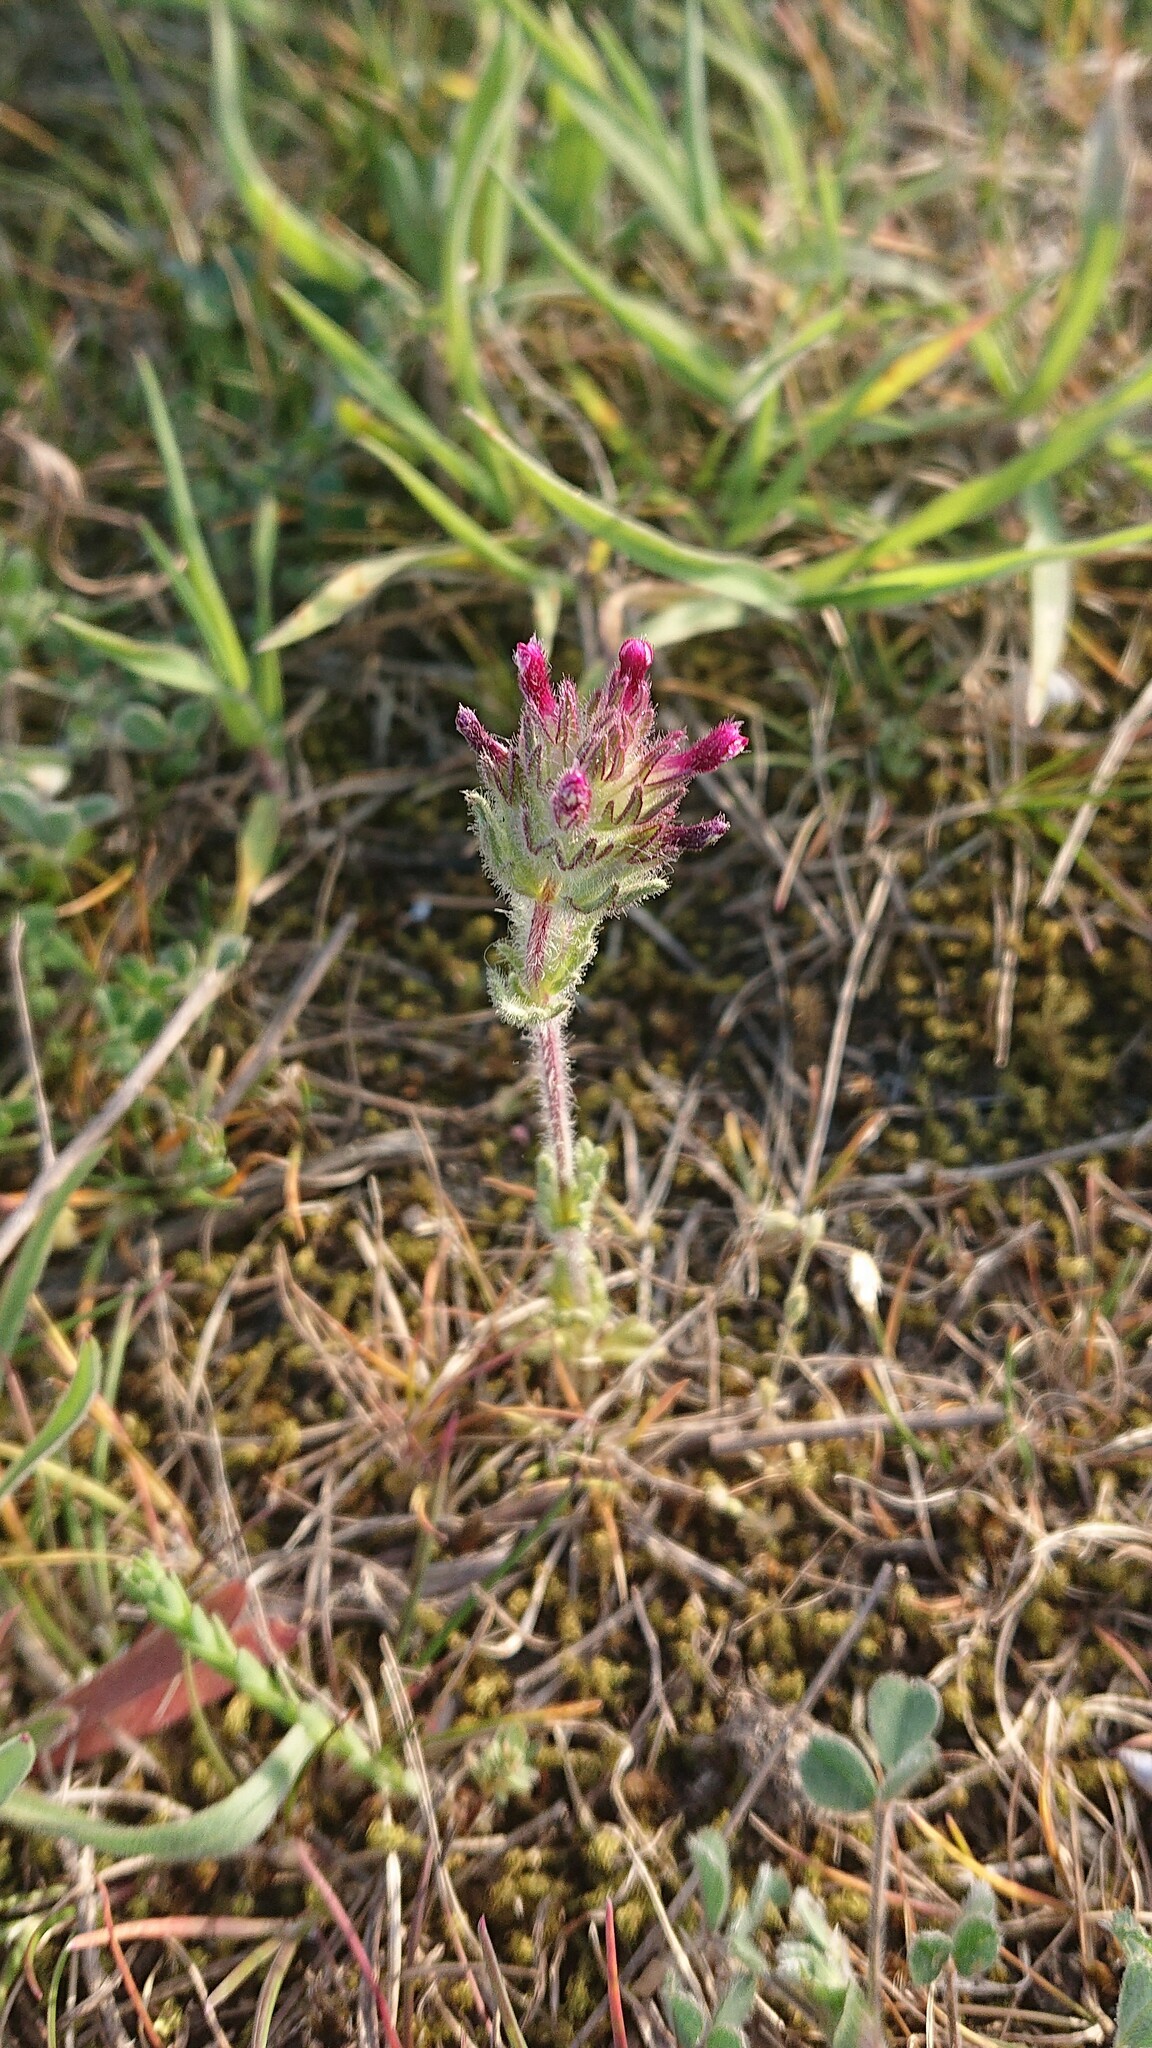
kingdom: Plantae
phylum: Tracheophyta
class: Magnoliopsida
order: Lamiales
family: Orobanchaceae
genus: Parentucellia
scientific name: Parentucellia latifolia
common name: Broadleaf glandweed
